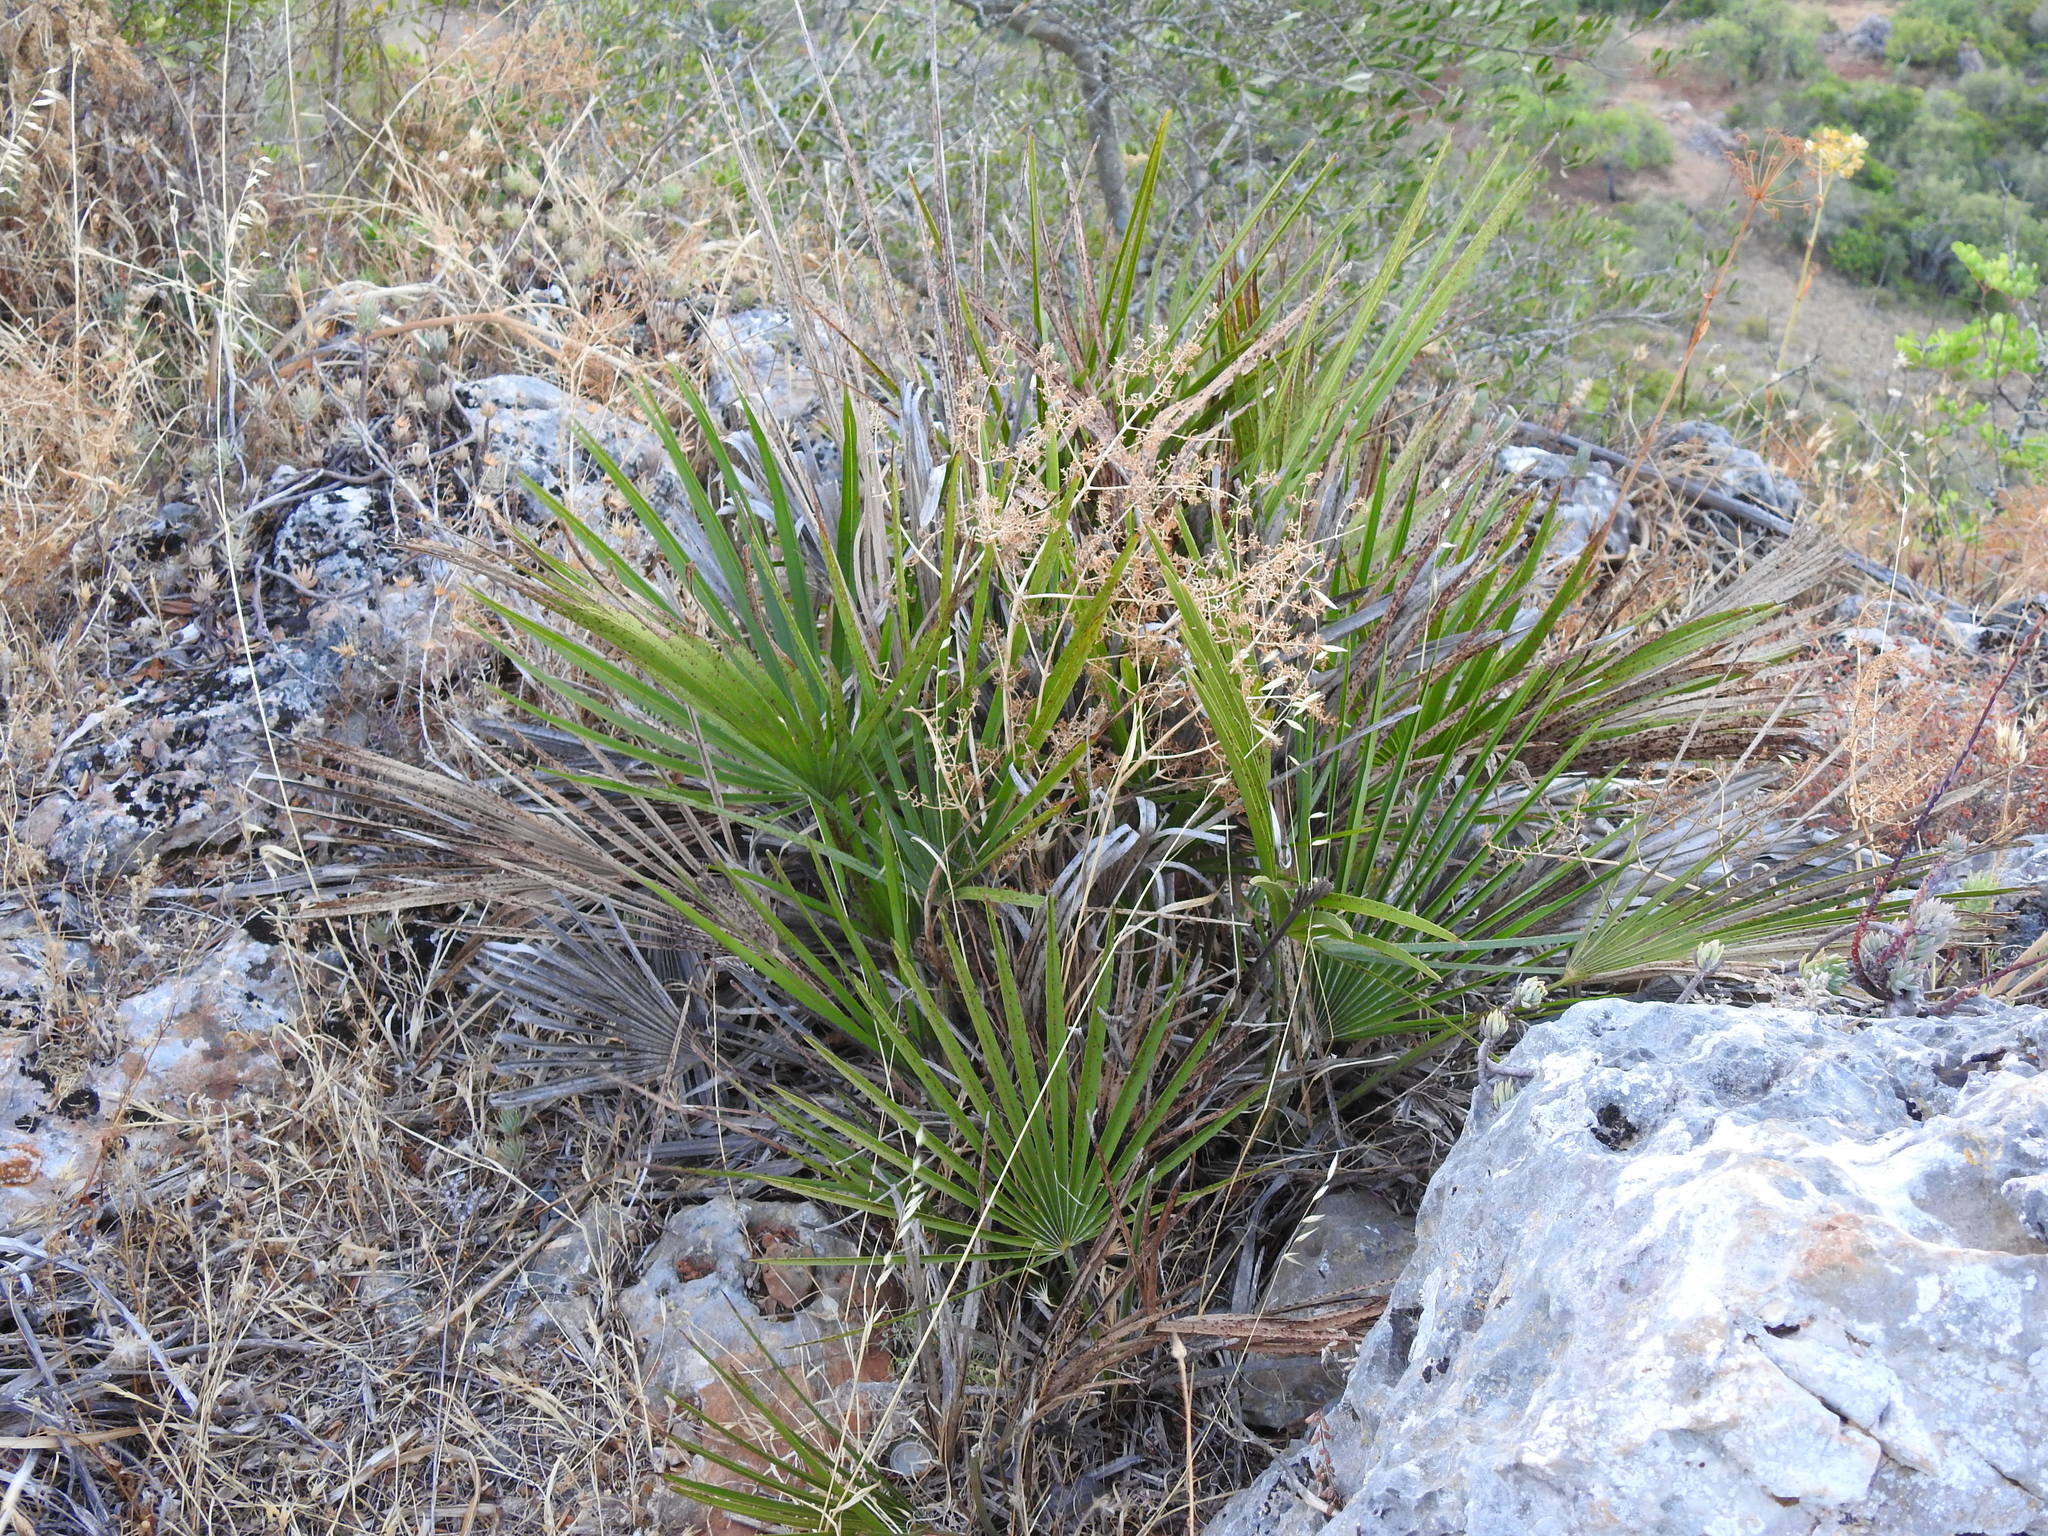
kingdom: Plantae
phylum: Tracheophyta
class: Liliopsida
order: Arecales
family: Arecaceae
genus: Chamaerops
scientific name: Chamaerops humilis
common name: Dwarf fan palm
